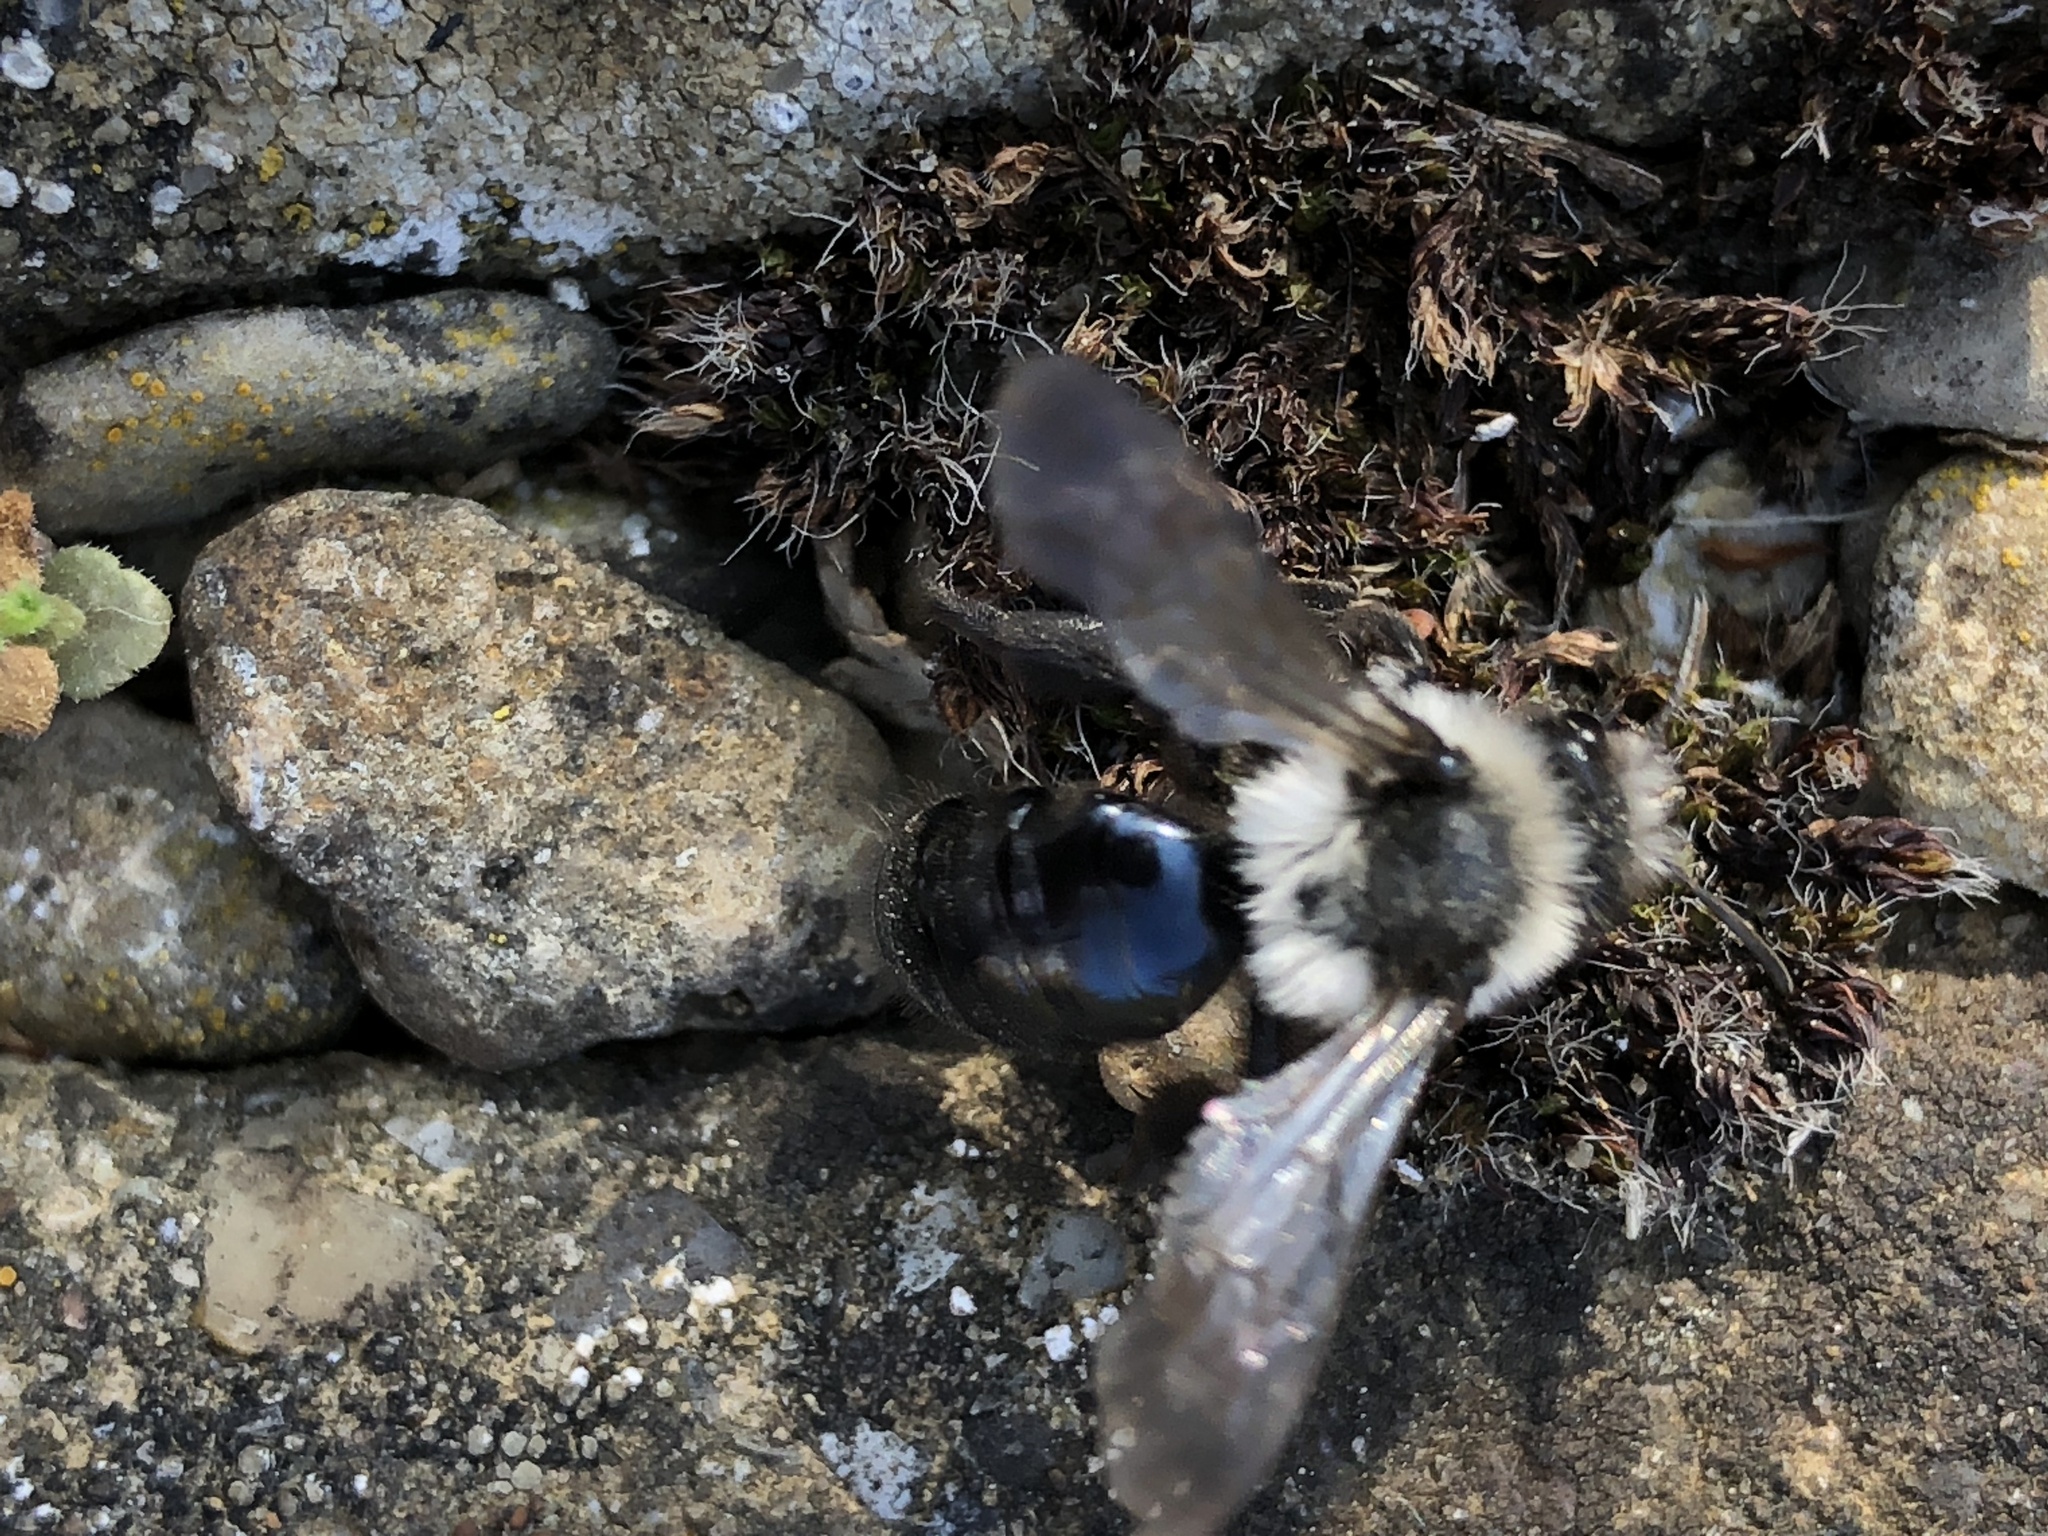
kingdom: Animalia
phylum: Arthropoda
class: Insecta
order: Hymenoptera
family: Andrenidae
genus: Andrena
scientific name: Andrena cineraria
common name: Ashy mining bee
